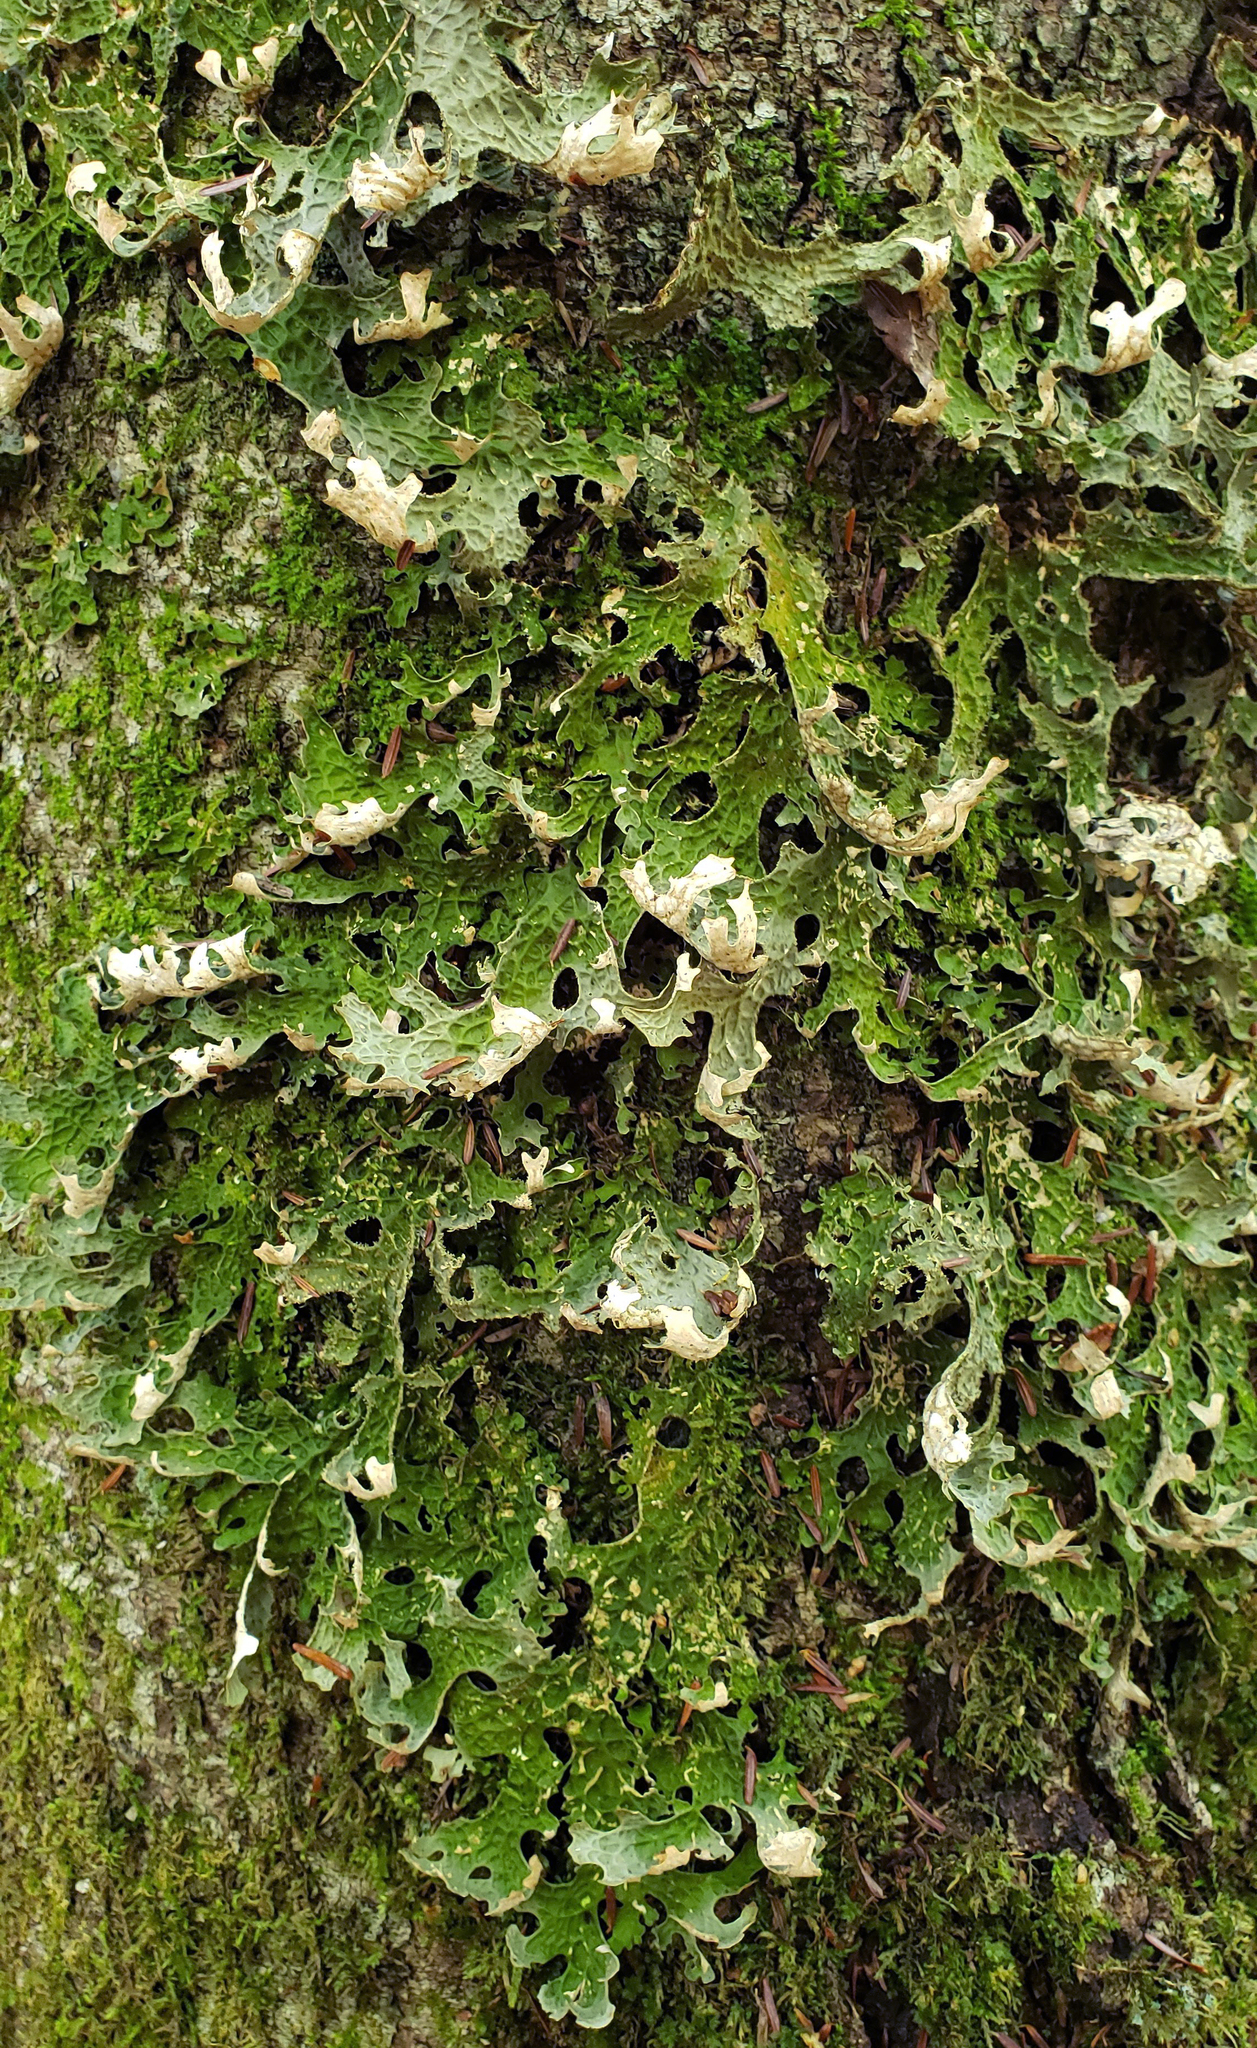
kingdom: Fungi
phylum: Ascomycota
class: Lecanoromycetes
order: Peltigerales
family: Lobariaceae
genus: Lobaria
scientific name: Lobaria pulmonaria
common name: Lungwort
